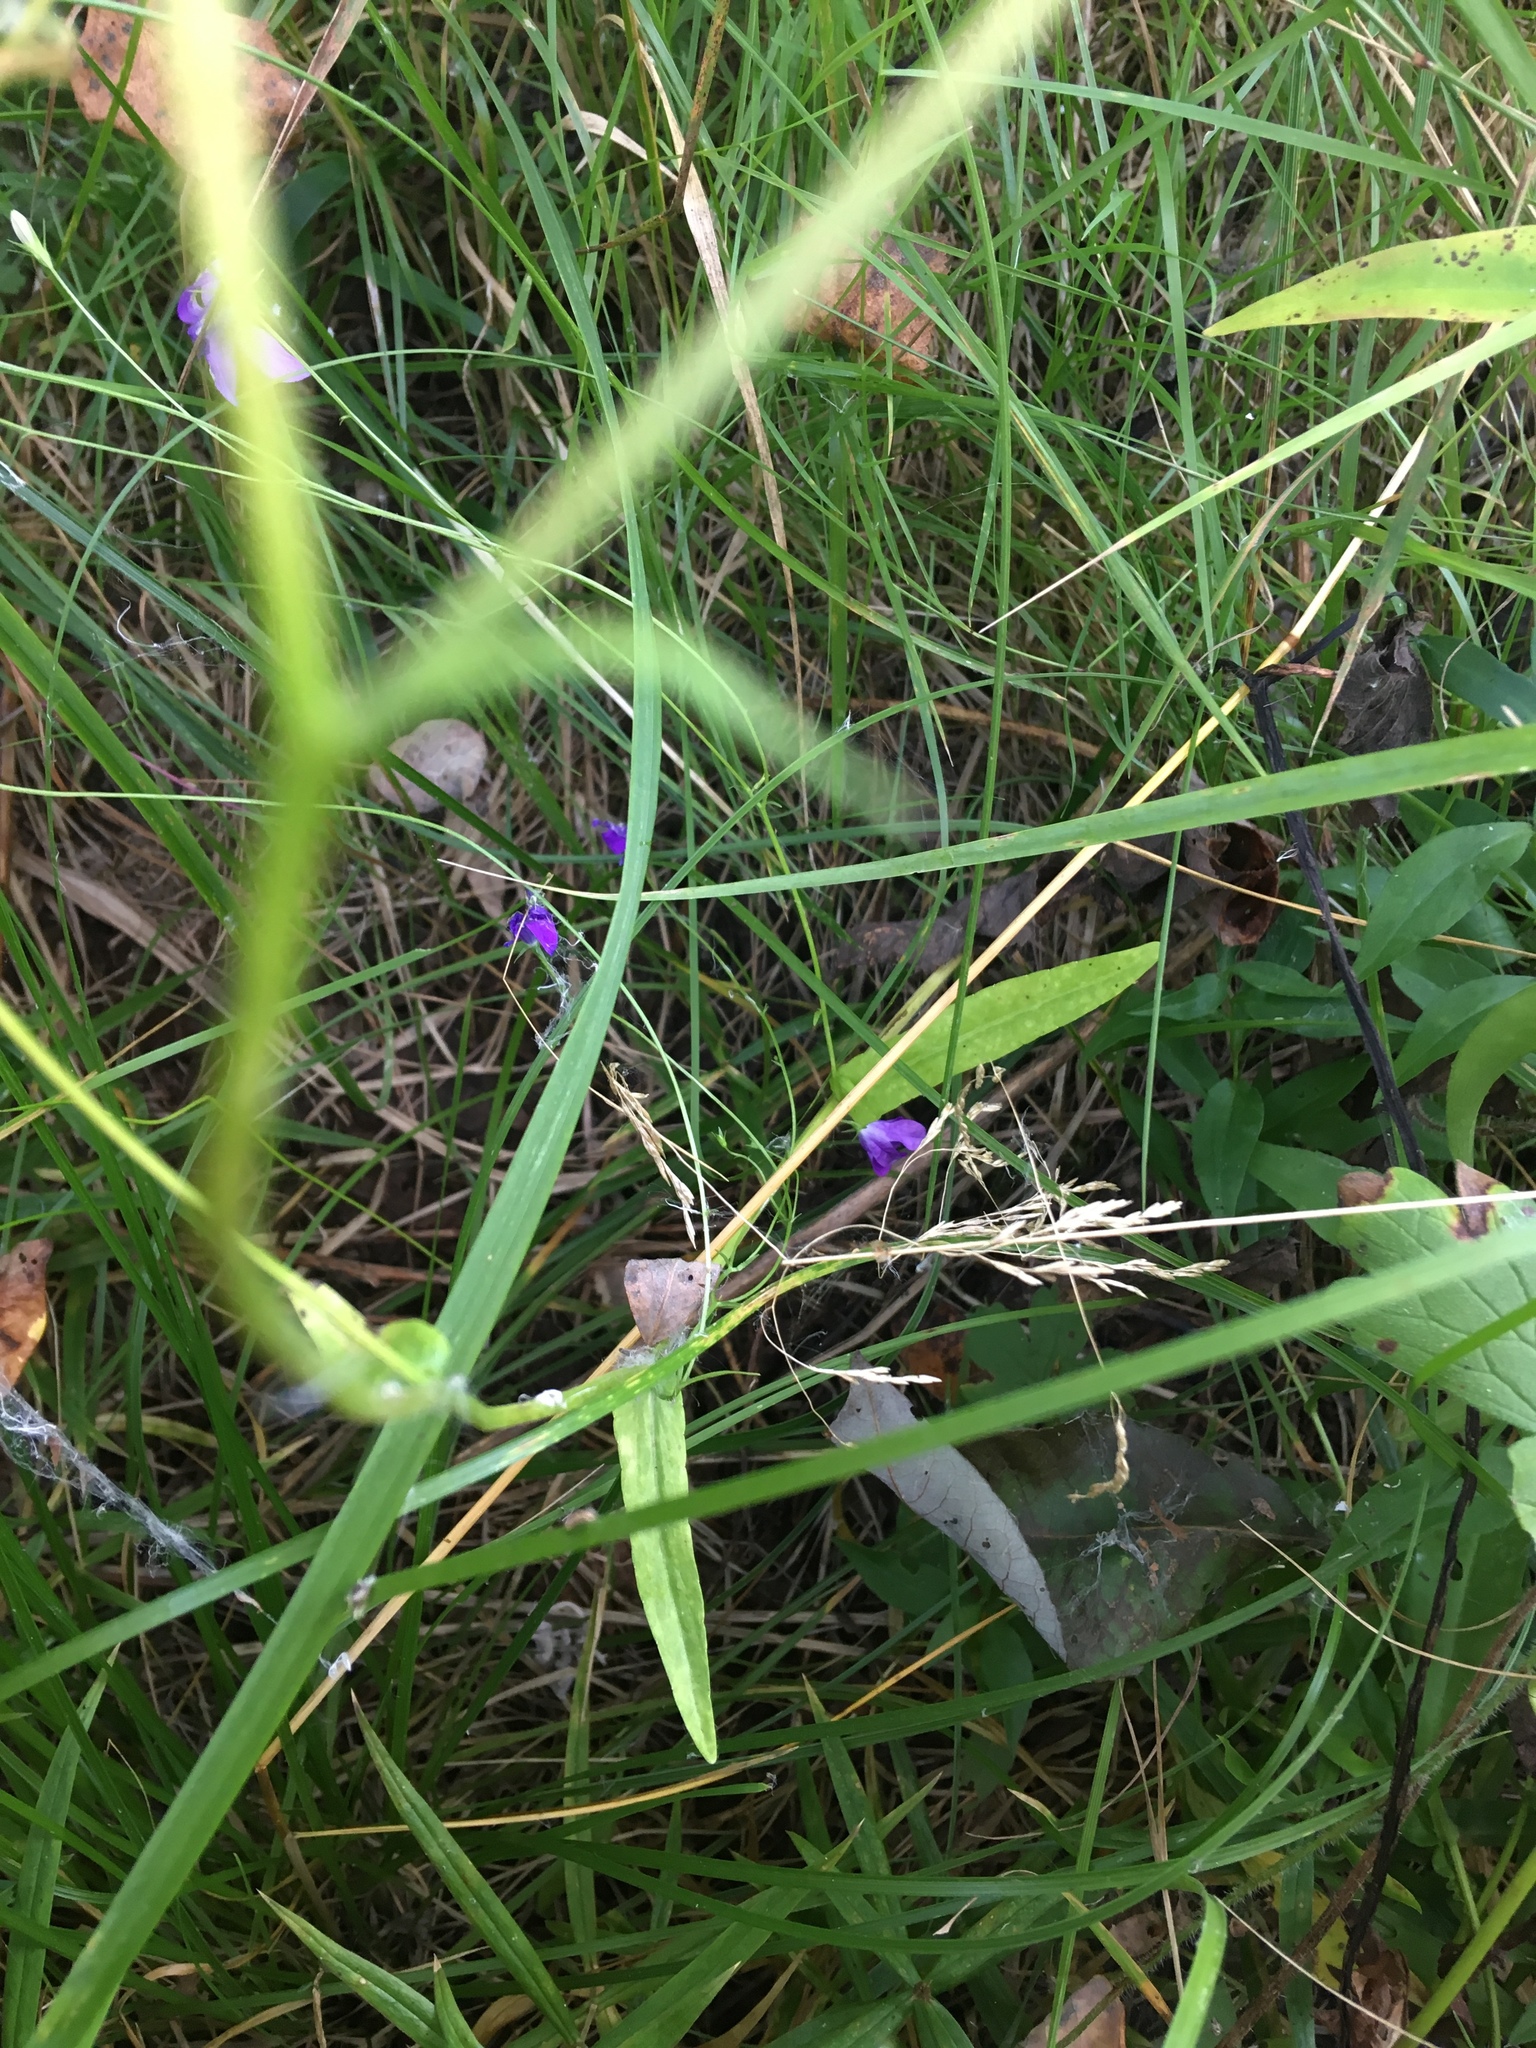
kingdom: Plantae
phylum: Tracheophyta
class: Magnoliopsida
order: Asterales
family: Campanulaceae
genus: Campanula
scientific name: Campanula patula
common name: Spreading bellflower
